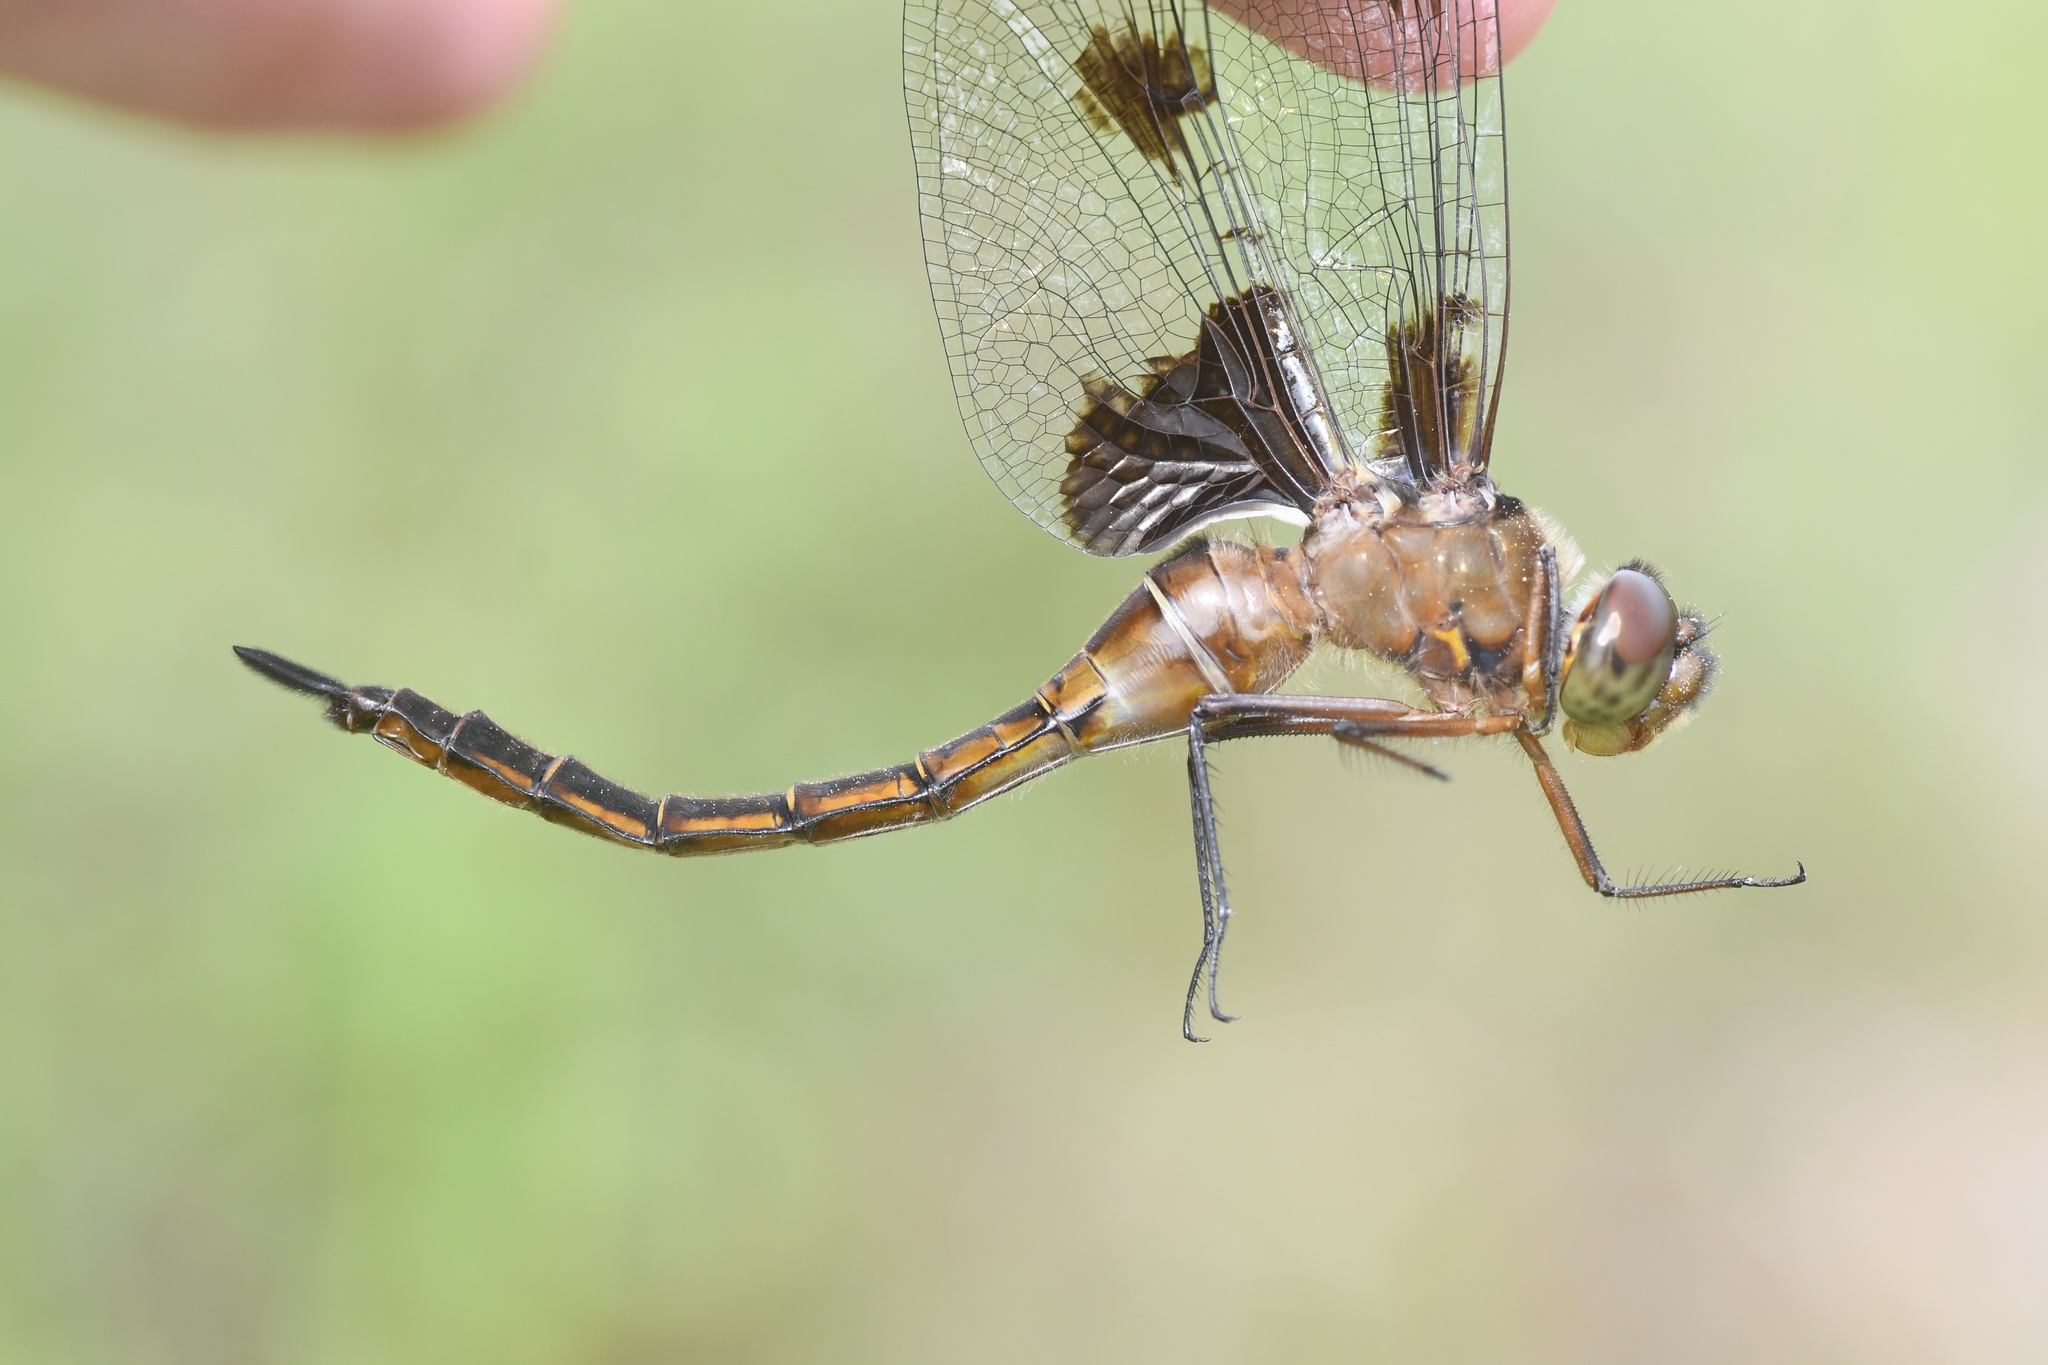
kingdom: Animalia
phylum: Arthropoda
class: Insecta
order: Odonata
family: Corduliidae
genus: Epitheca
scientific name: Epitheca princeps
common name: Prince baskettail
